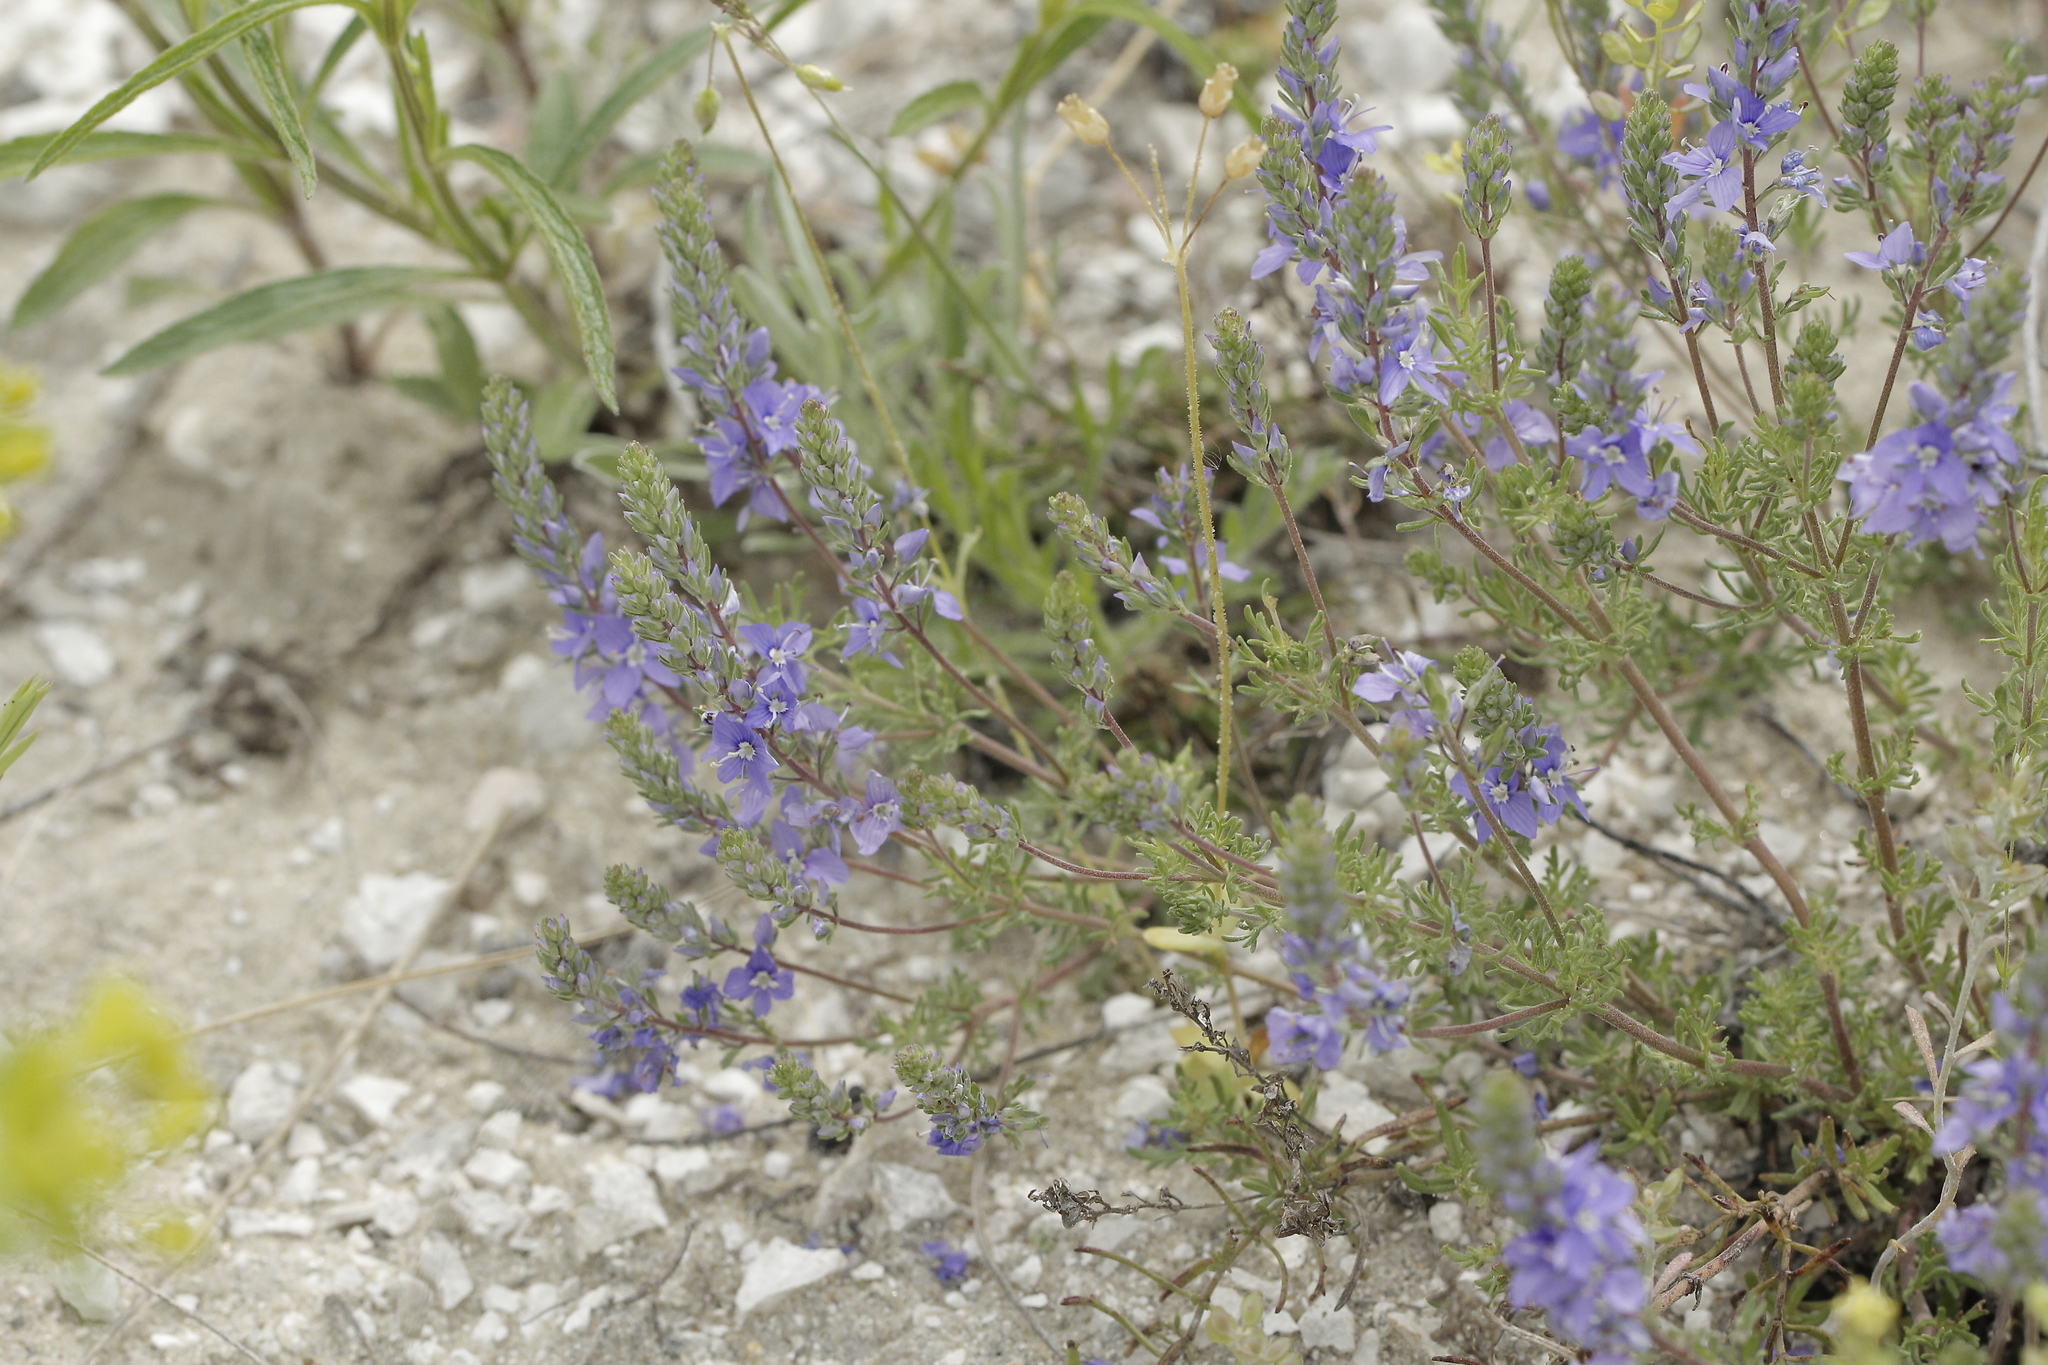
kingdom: Plantae
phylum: Tracheophyta
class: Magnoliopsida
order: Lamiales
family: Plantaginaceae
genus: Veronica
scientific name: Veronica multifida
